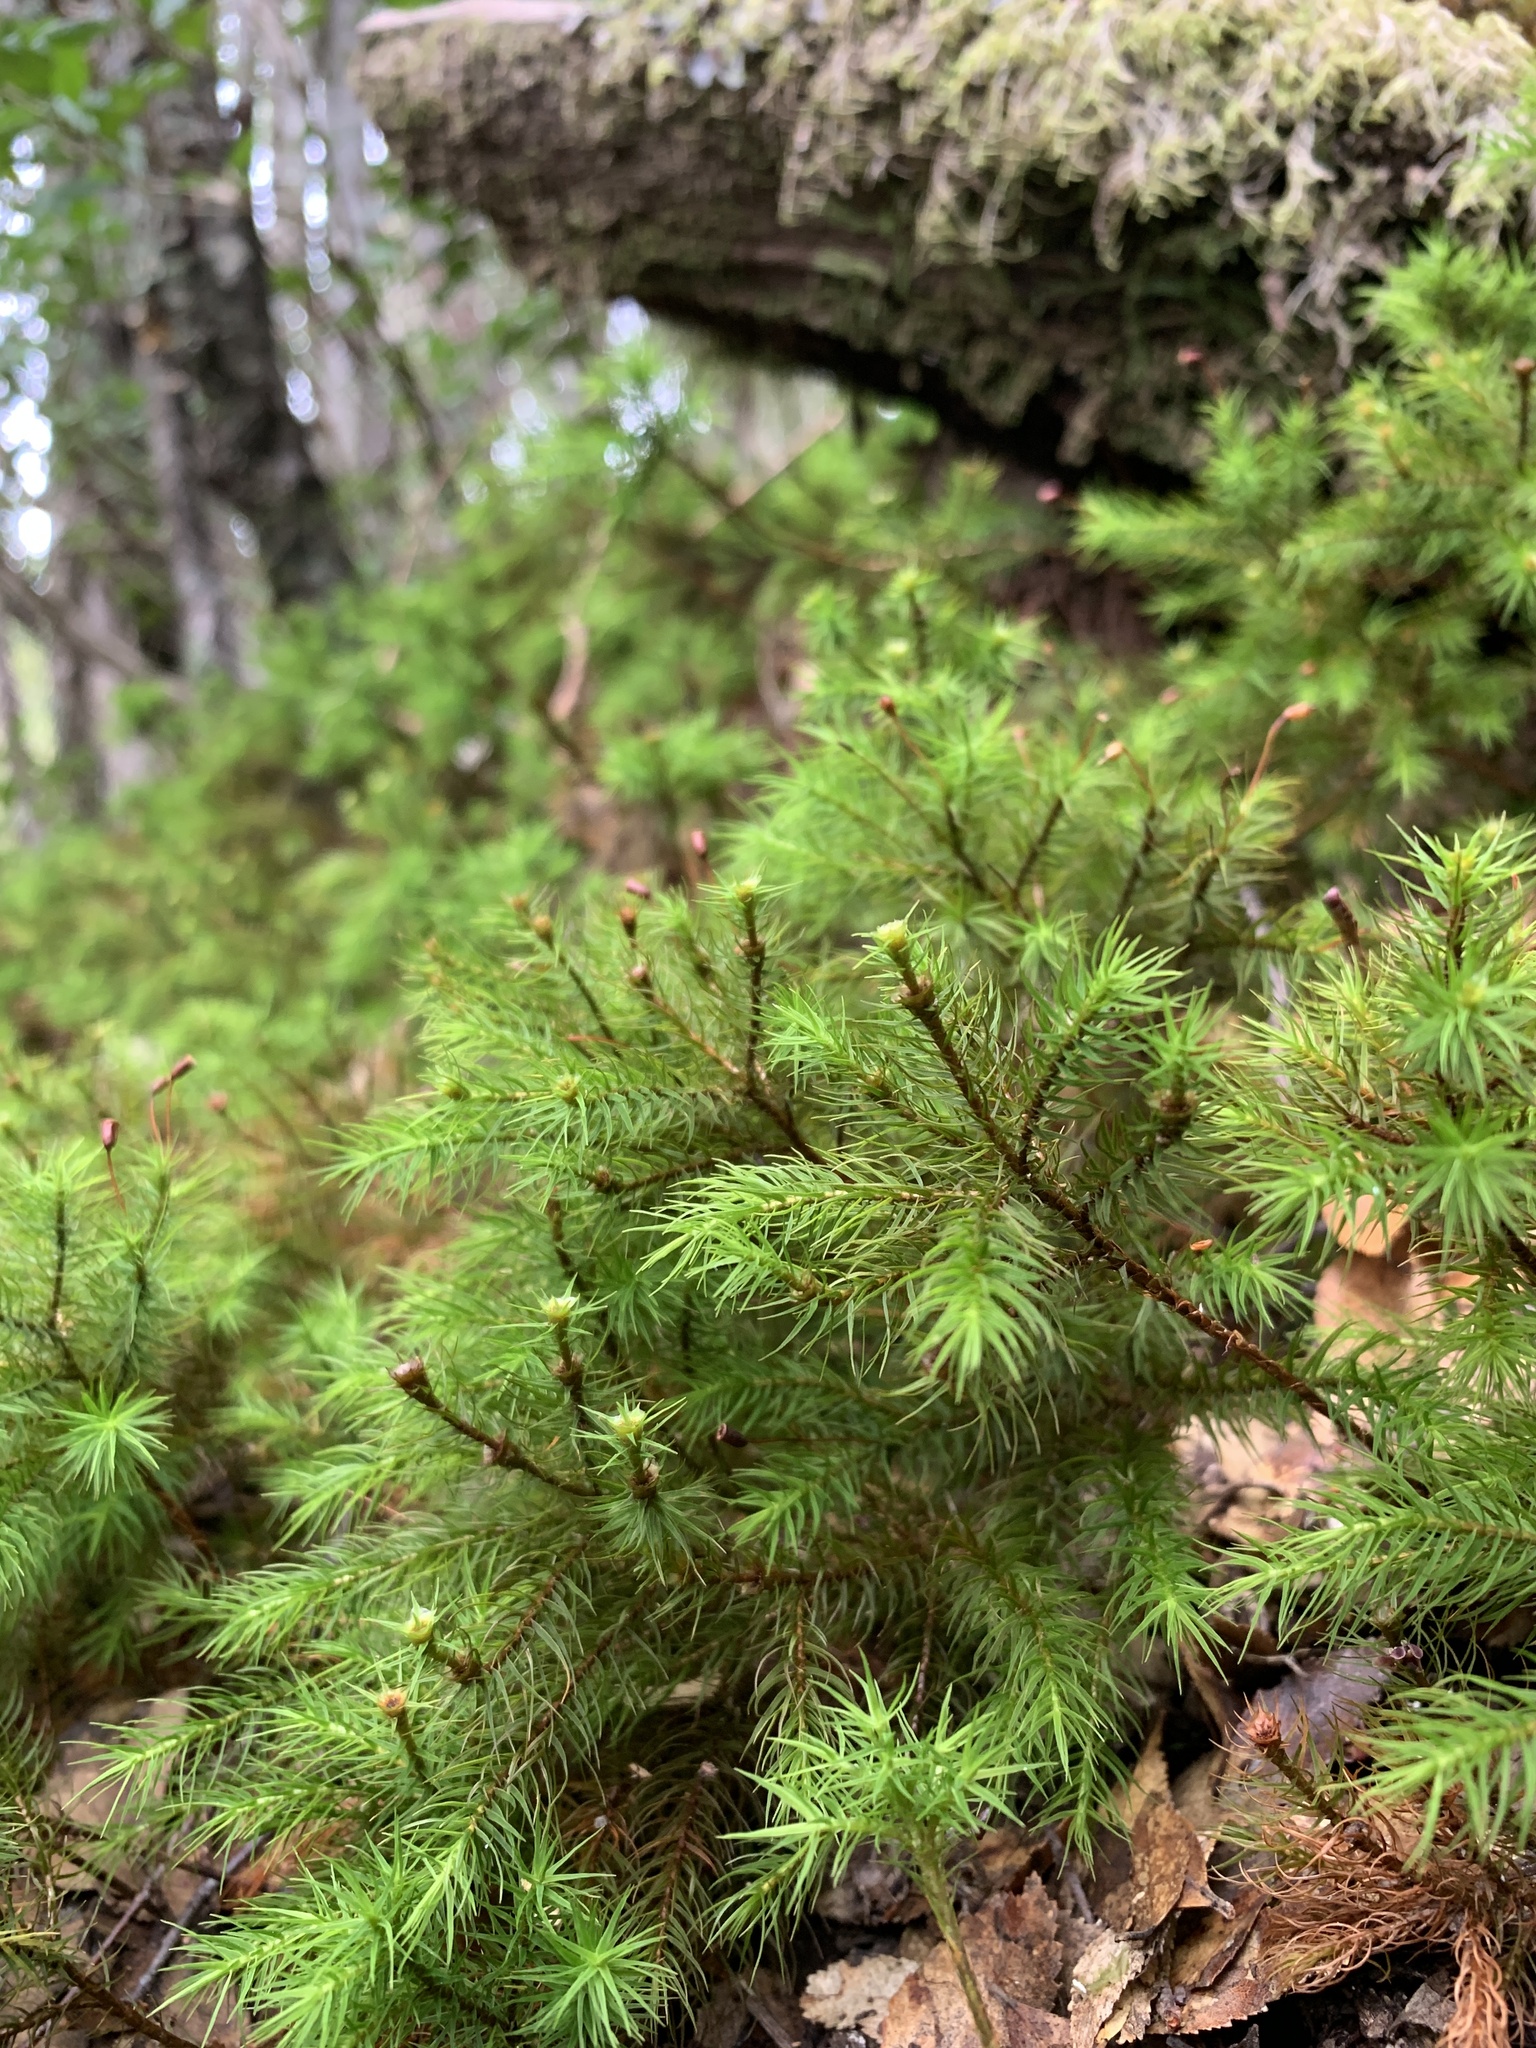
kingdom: Plantae
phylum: Bryophyta
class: Polytrichopsida
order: Polytrichales
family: Polytrichaceae
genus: Dendroligotrichum
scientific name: Dendroligotrichum dendroides
